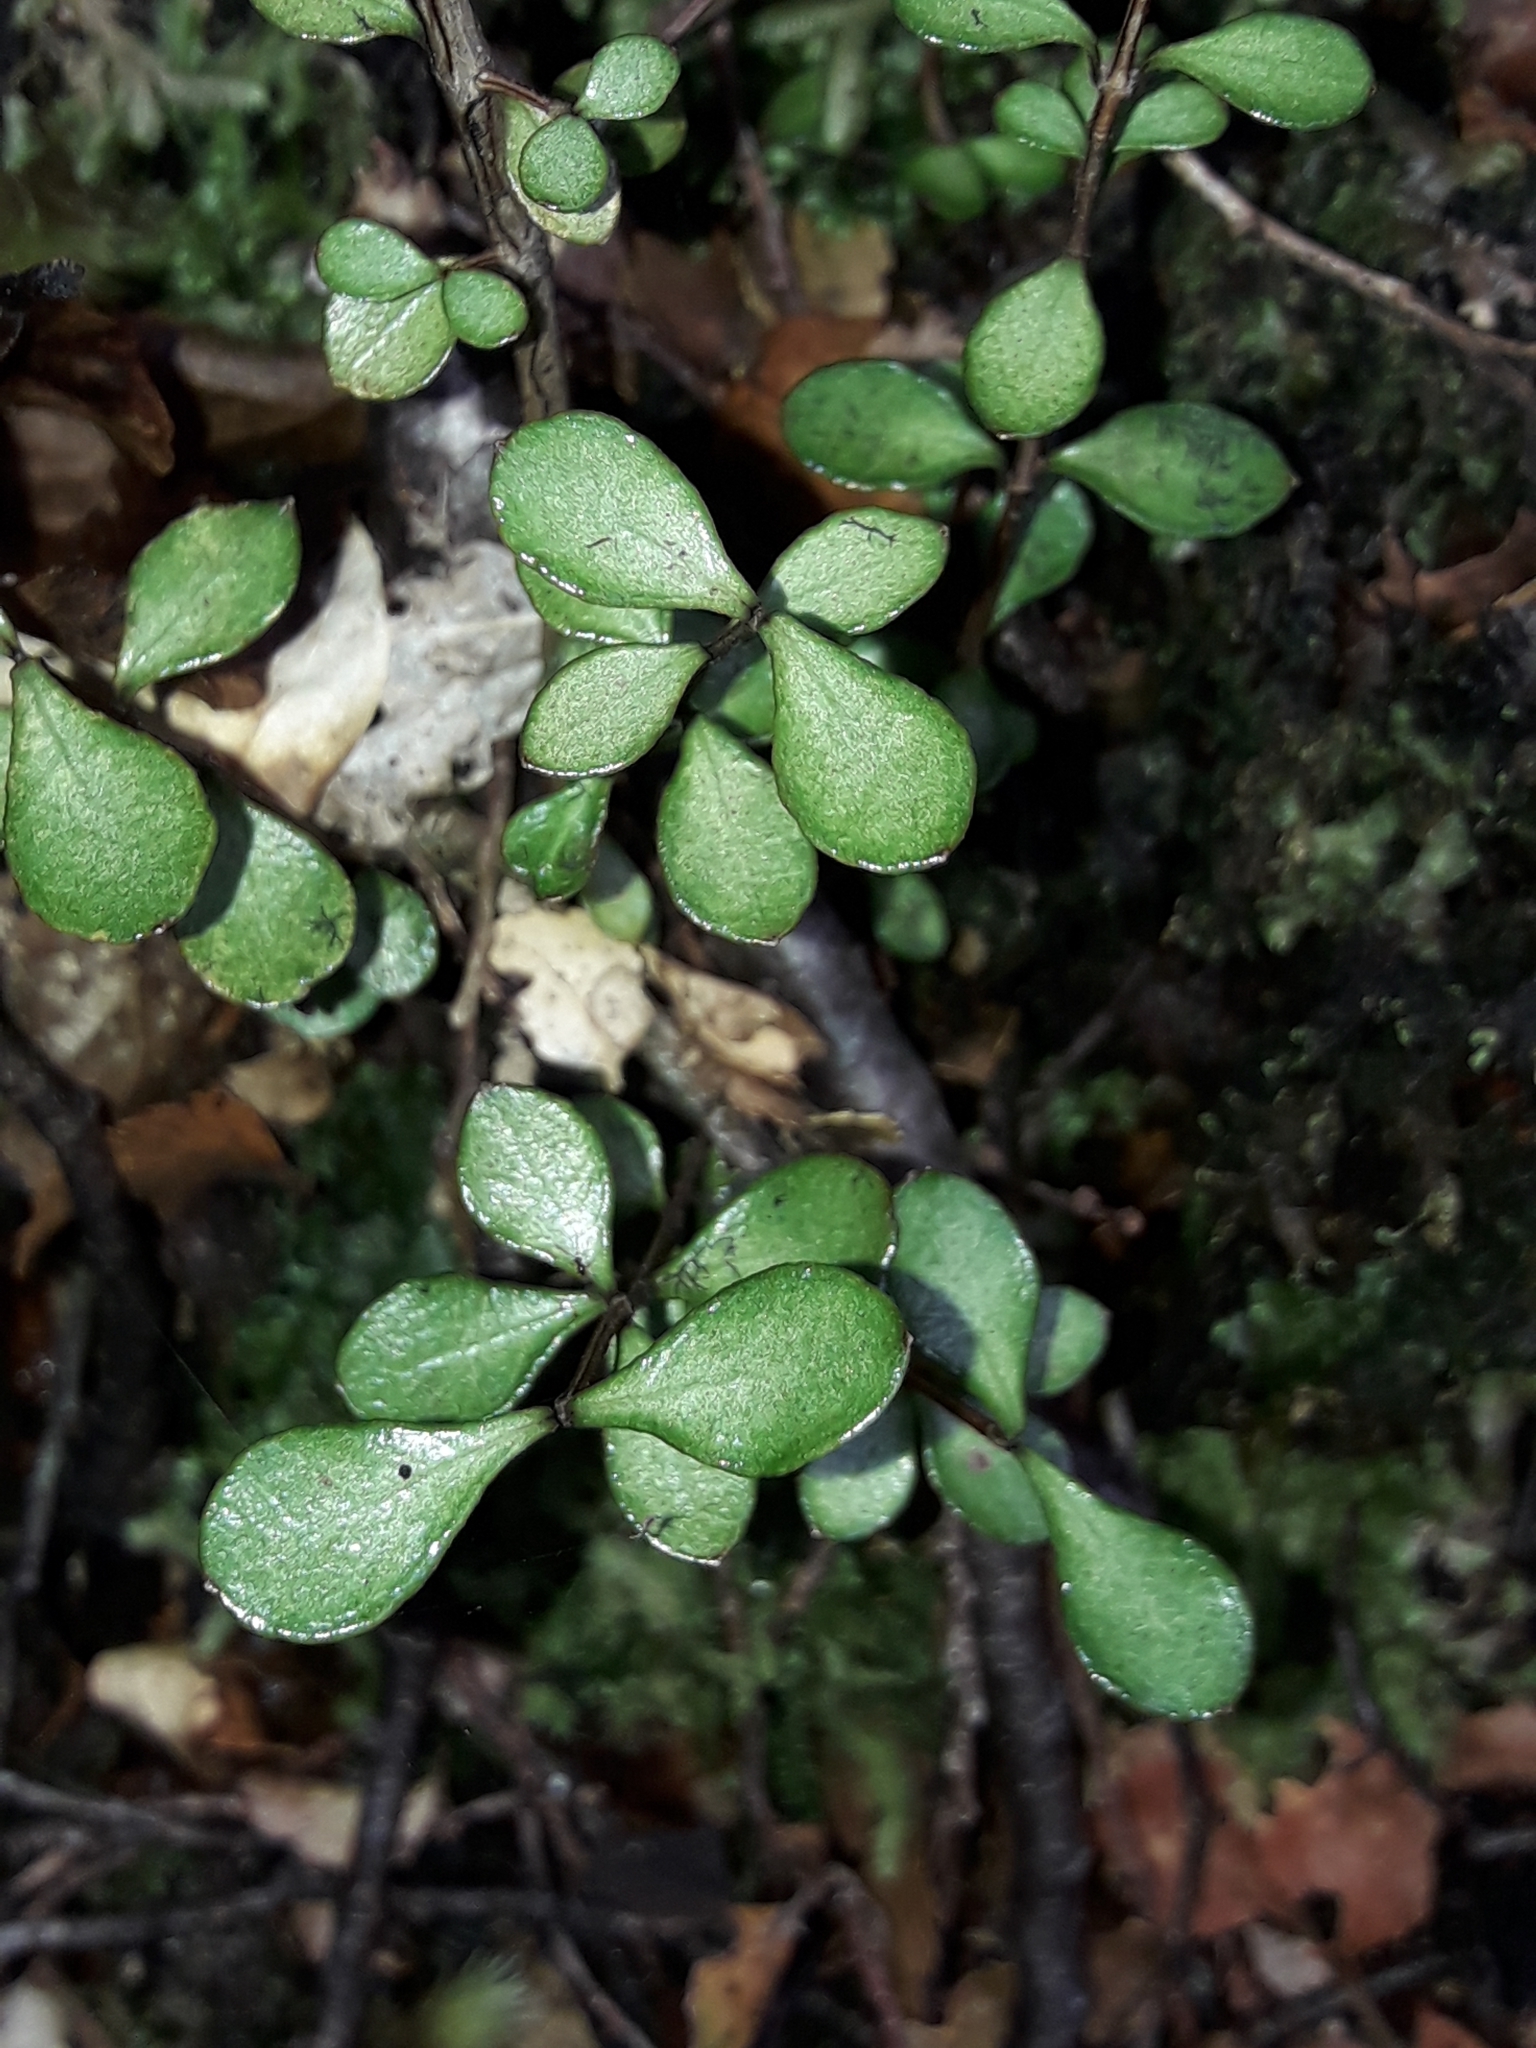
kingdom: Plantae
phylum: Tracheophyta
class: Magnoliopsida
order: Myrtales
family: Myrtaceae
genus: Neomyrtus
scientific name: Neomyrtus pedunculata
